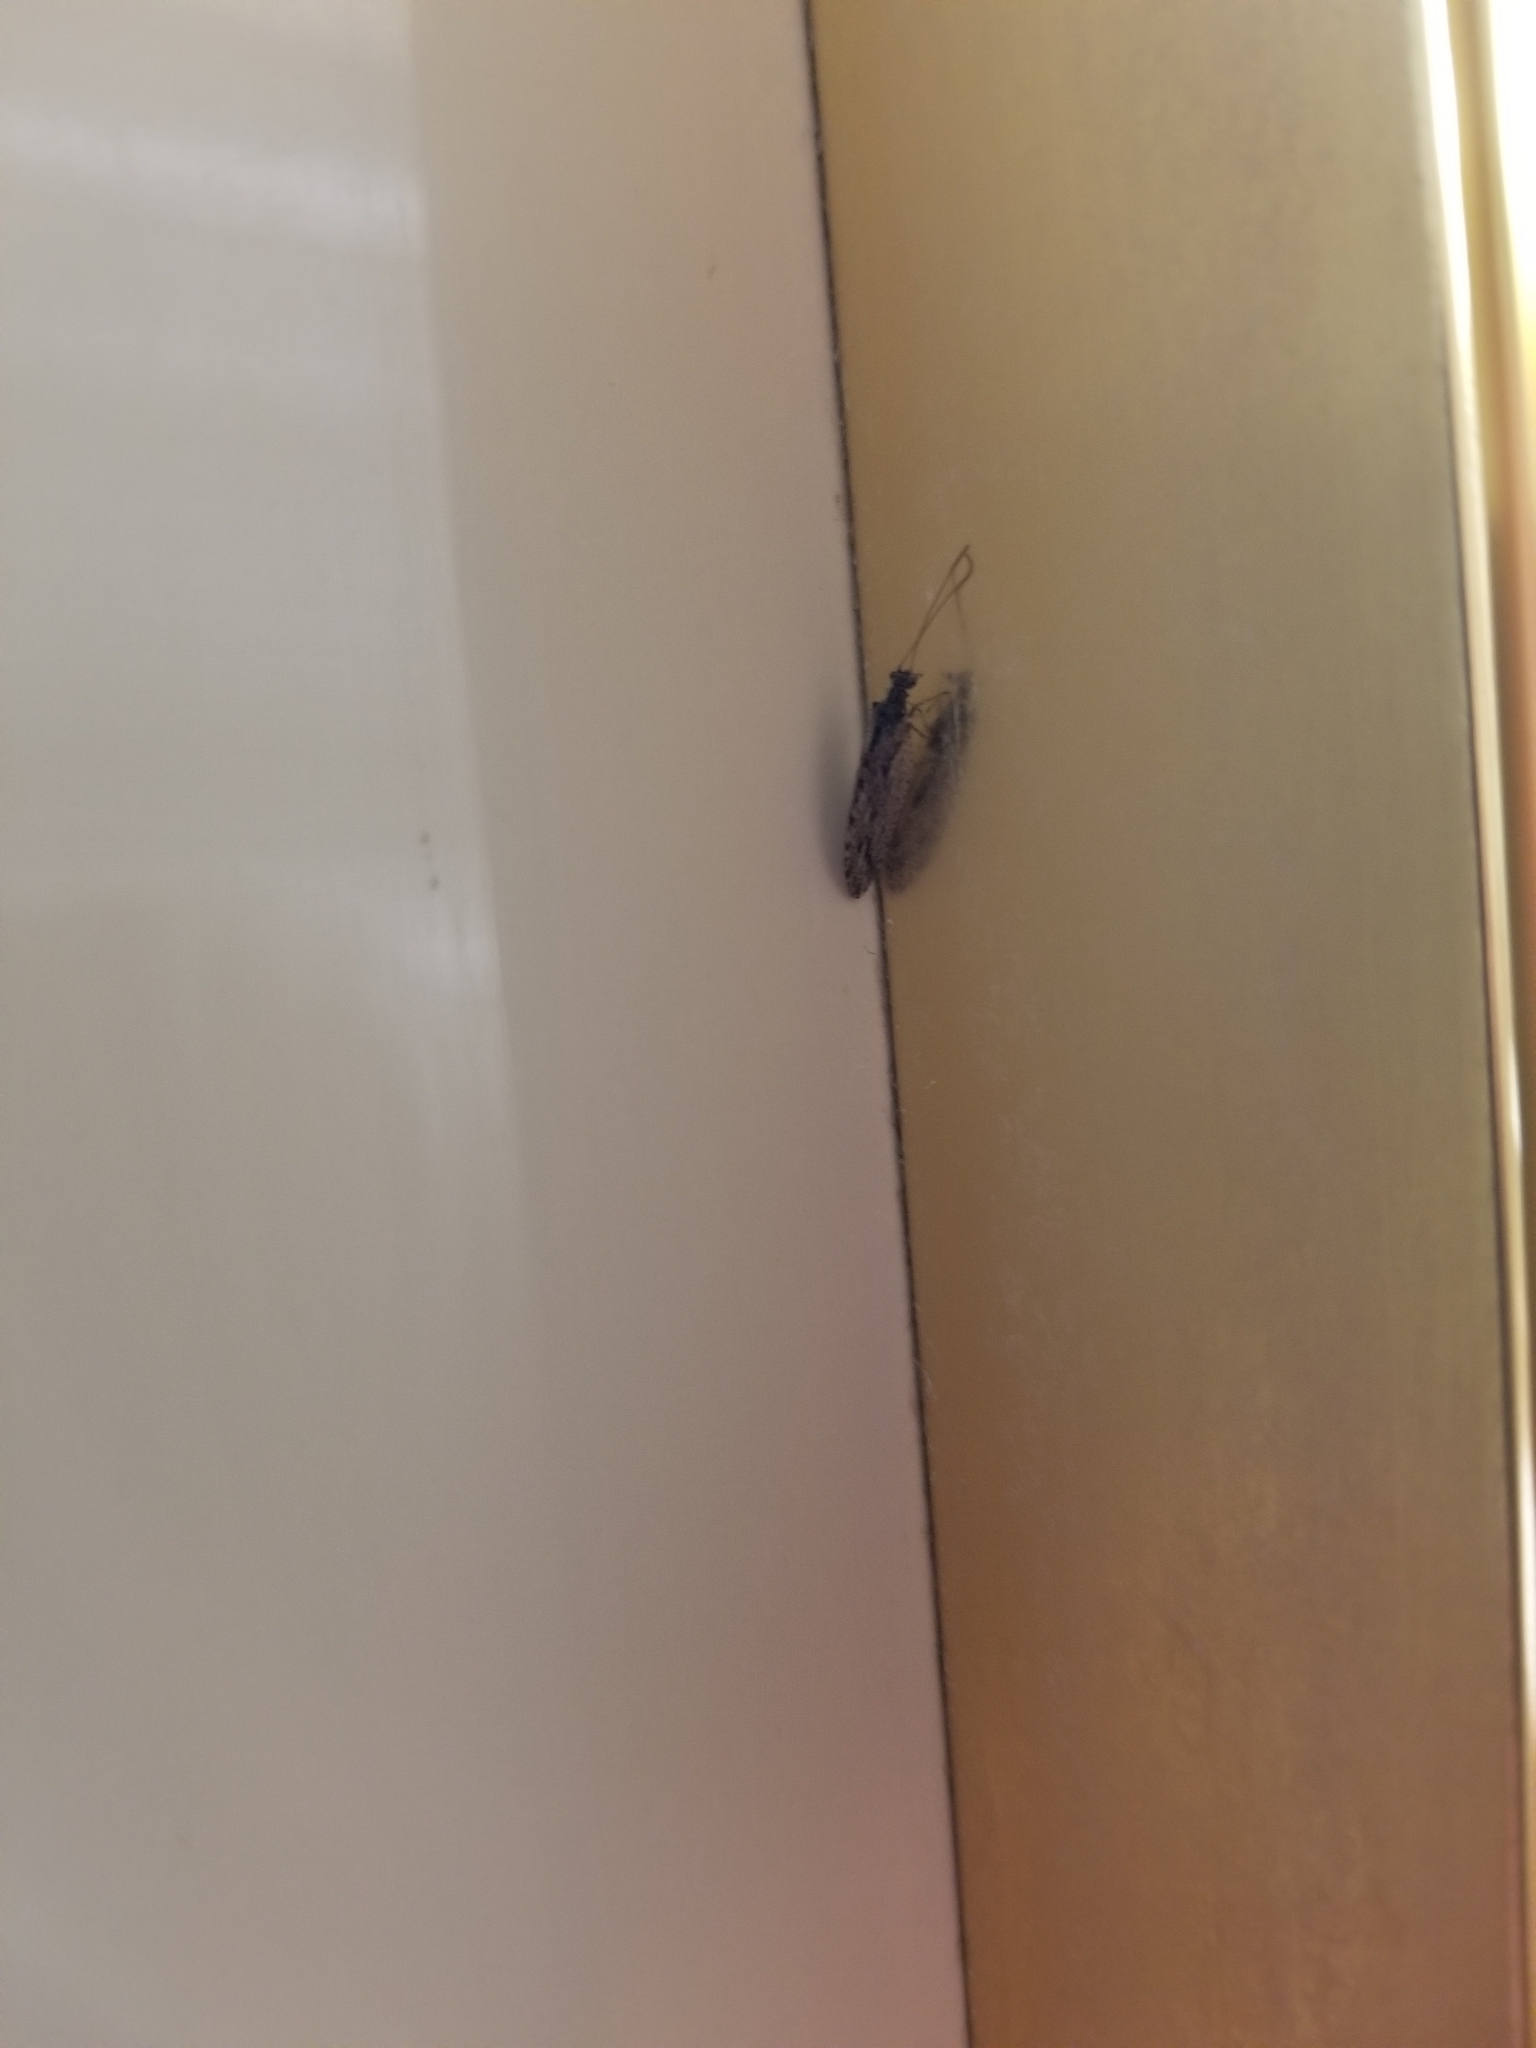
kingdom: Animalia
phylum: Arthropoda
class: Insecta
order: Neuroptera
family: Hemerobiidae
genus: Micromus
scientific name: Micromus variolosus
